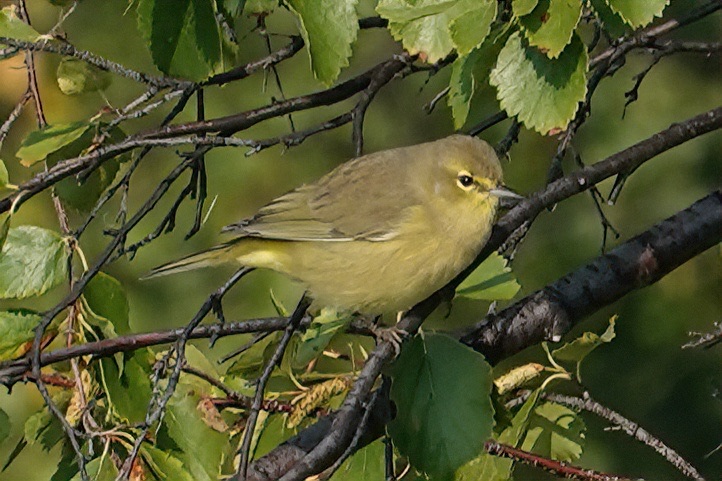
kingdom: Animalia
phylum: Chordata
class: Aves
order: Passeriformes
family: Parulidae
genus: Leiothlypis
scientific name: Leiothlypis celata
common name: Orange-crowned warbler
